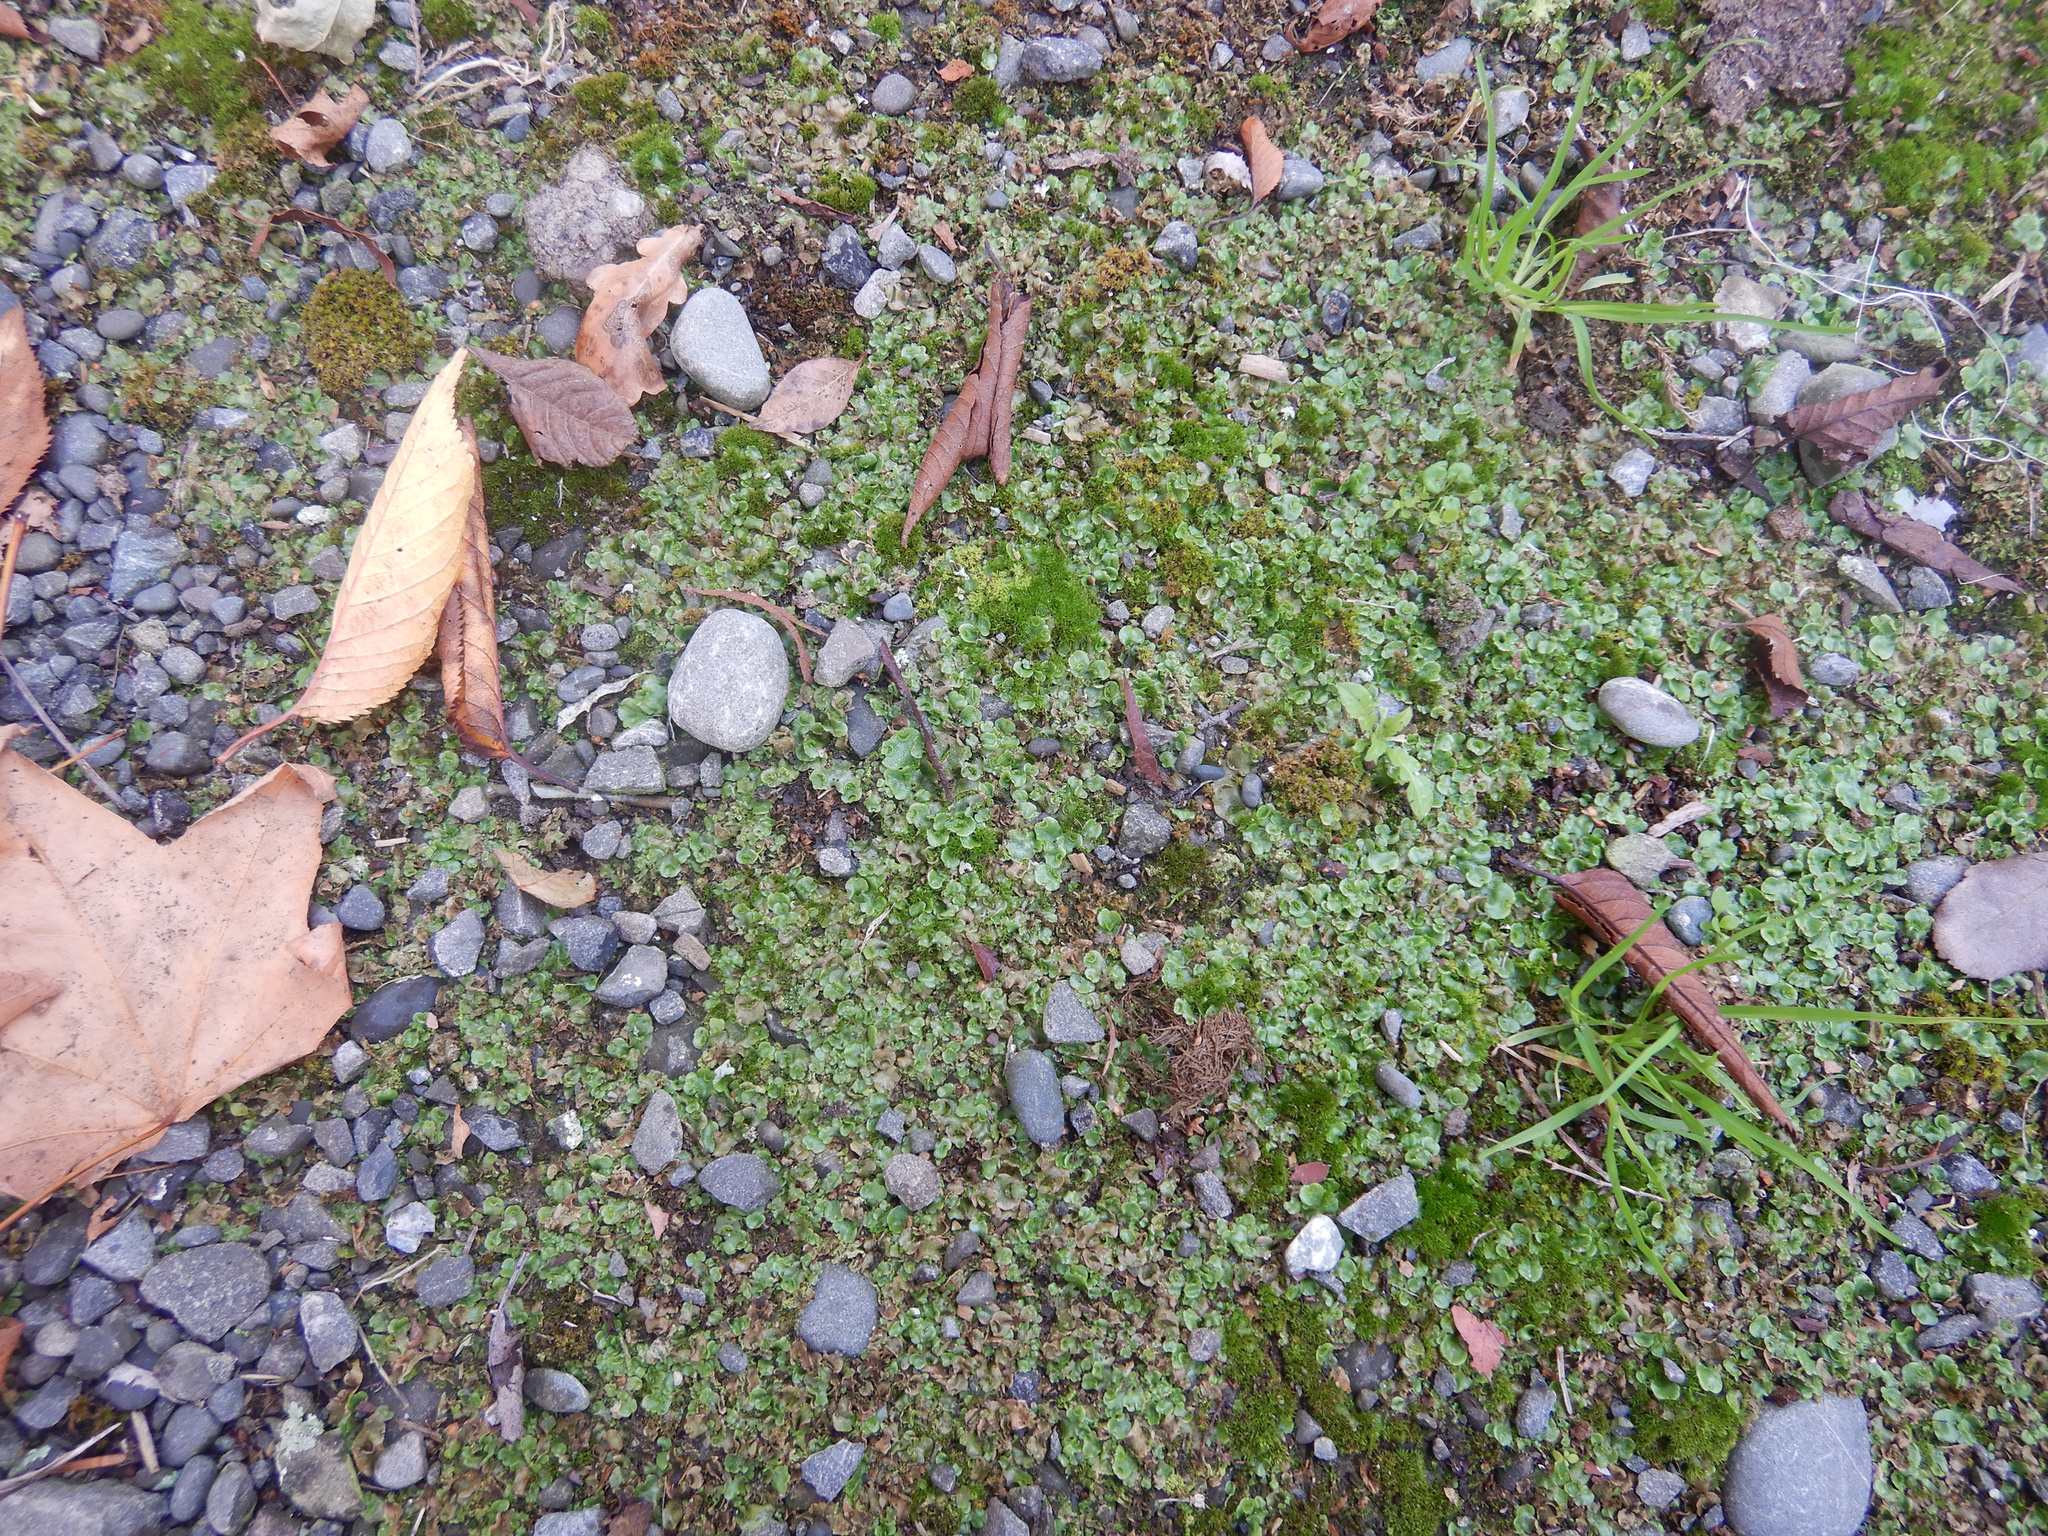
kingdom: Plantae
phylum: Marchantiophyta
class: Marchantiopsida
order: Lunulariales
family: Lunulariaceae
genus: Lunularia
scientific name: Lunularia cruciata
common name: Crescent-cup liverwort
